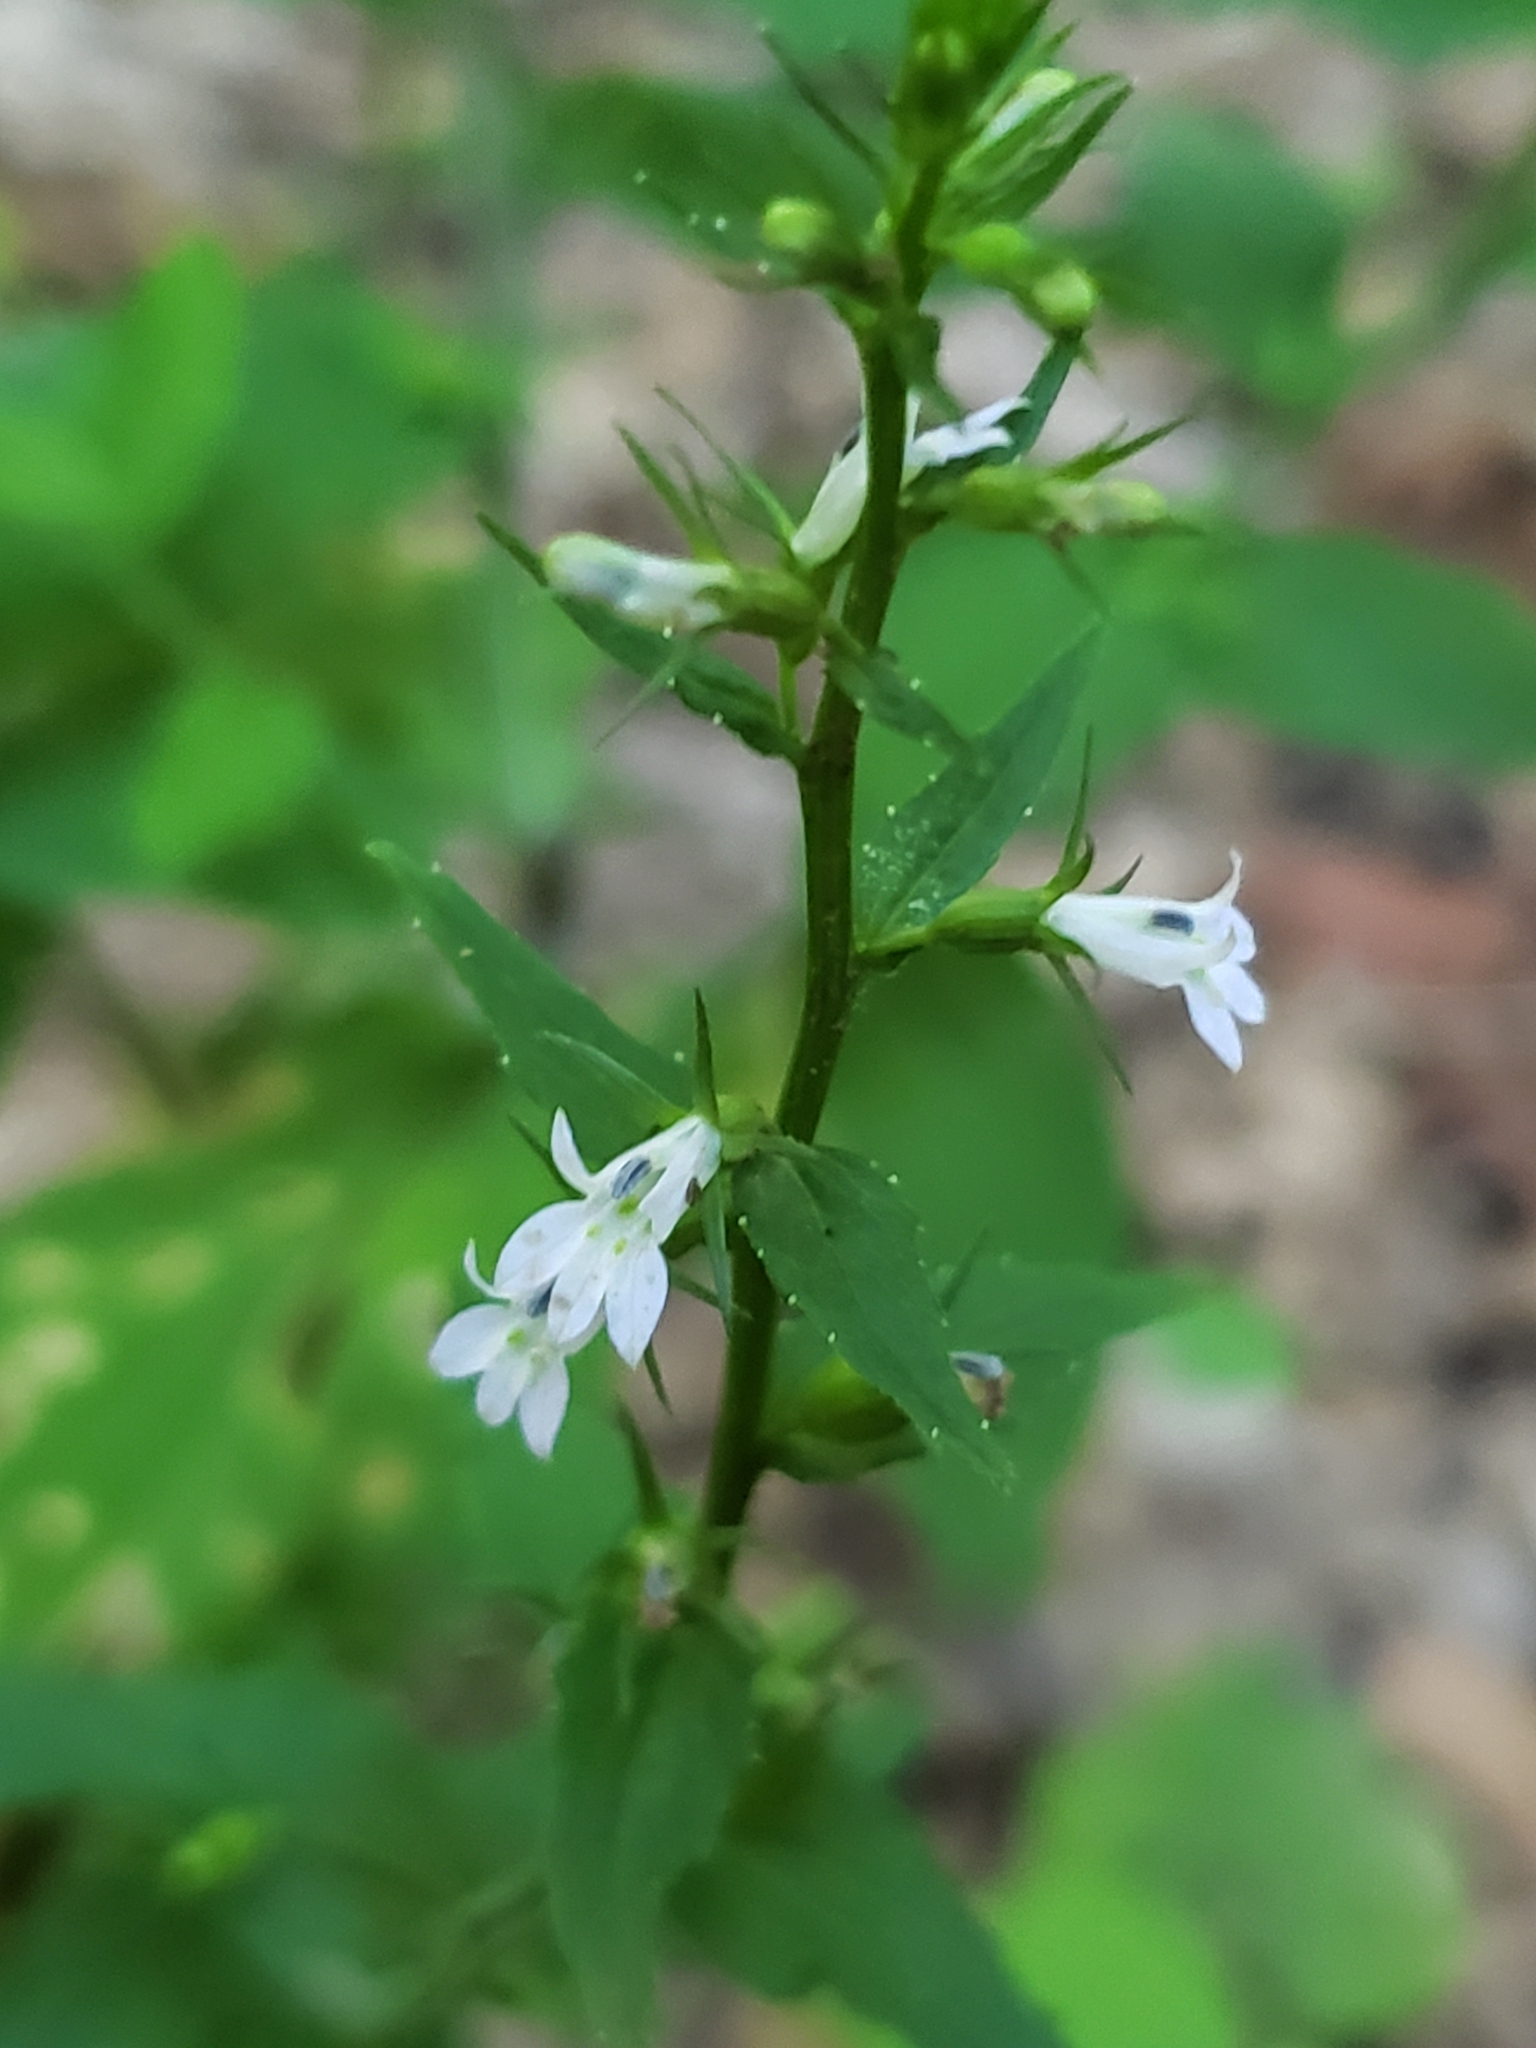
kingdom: Plantae
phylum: Tracheophyta
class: Magnoliopsida
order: Asterales
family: Campanulaceae
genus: Lobelia
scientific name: Lobelia inflata
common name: Indian tobacco
